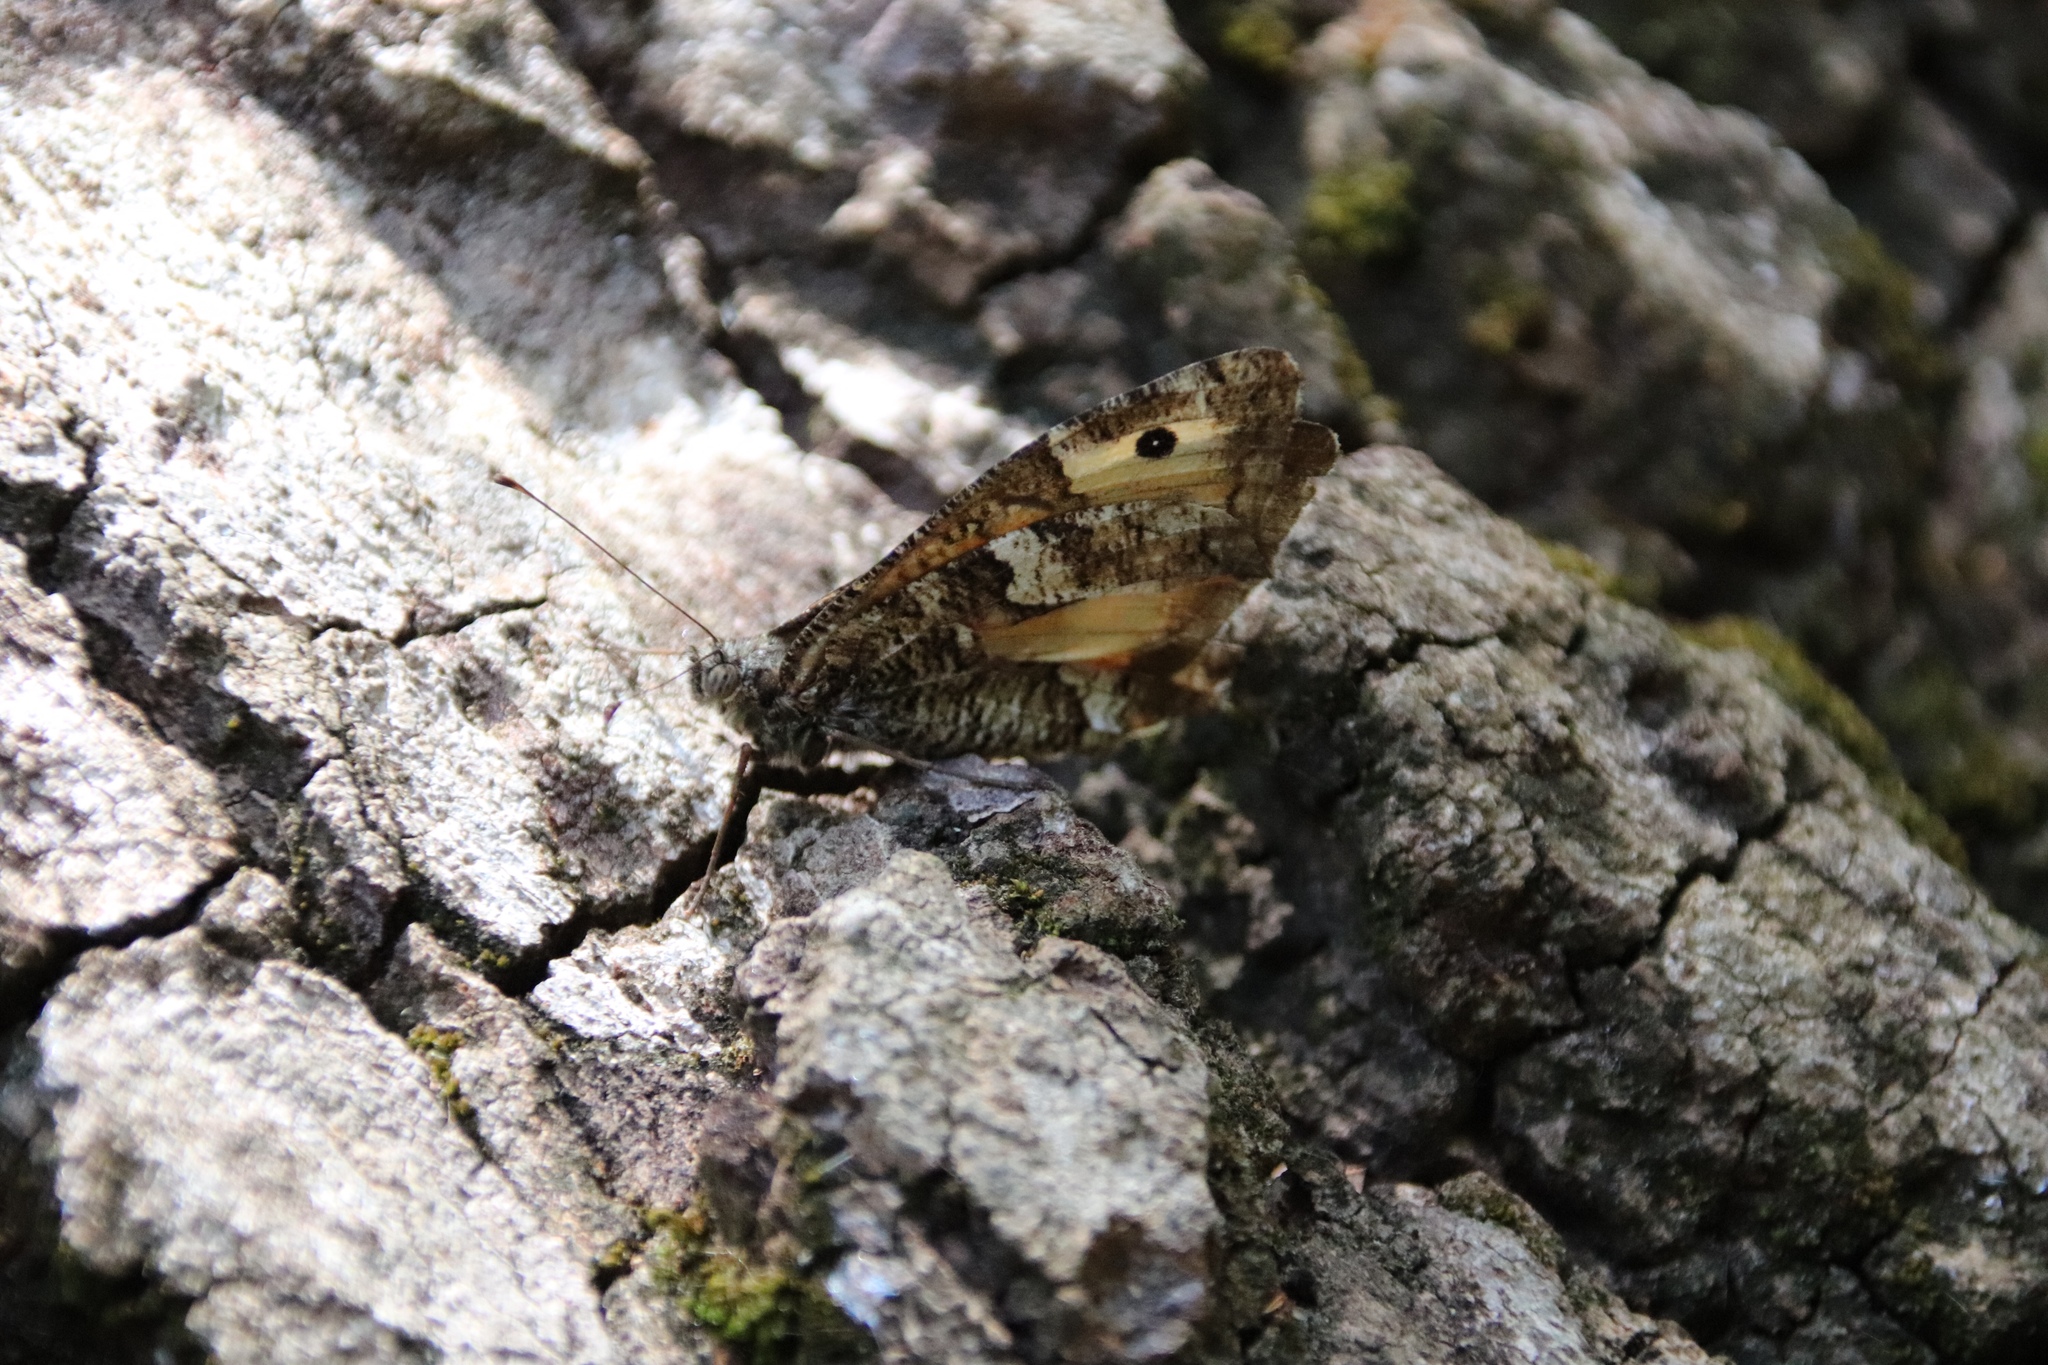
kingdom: Animalia
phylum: Arthropoda
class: Insecta
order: Lepidoptera
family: Nymphalidae
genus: Hipparchia
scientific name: Hipparchia cretica
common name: Cretan grayling
